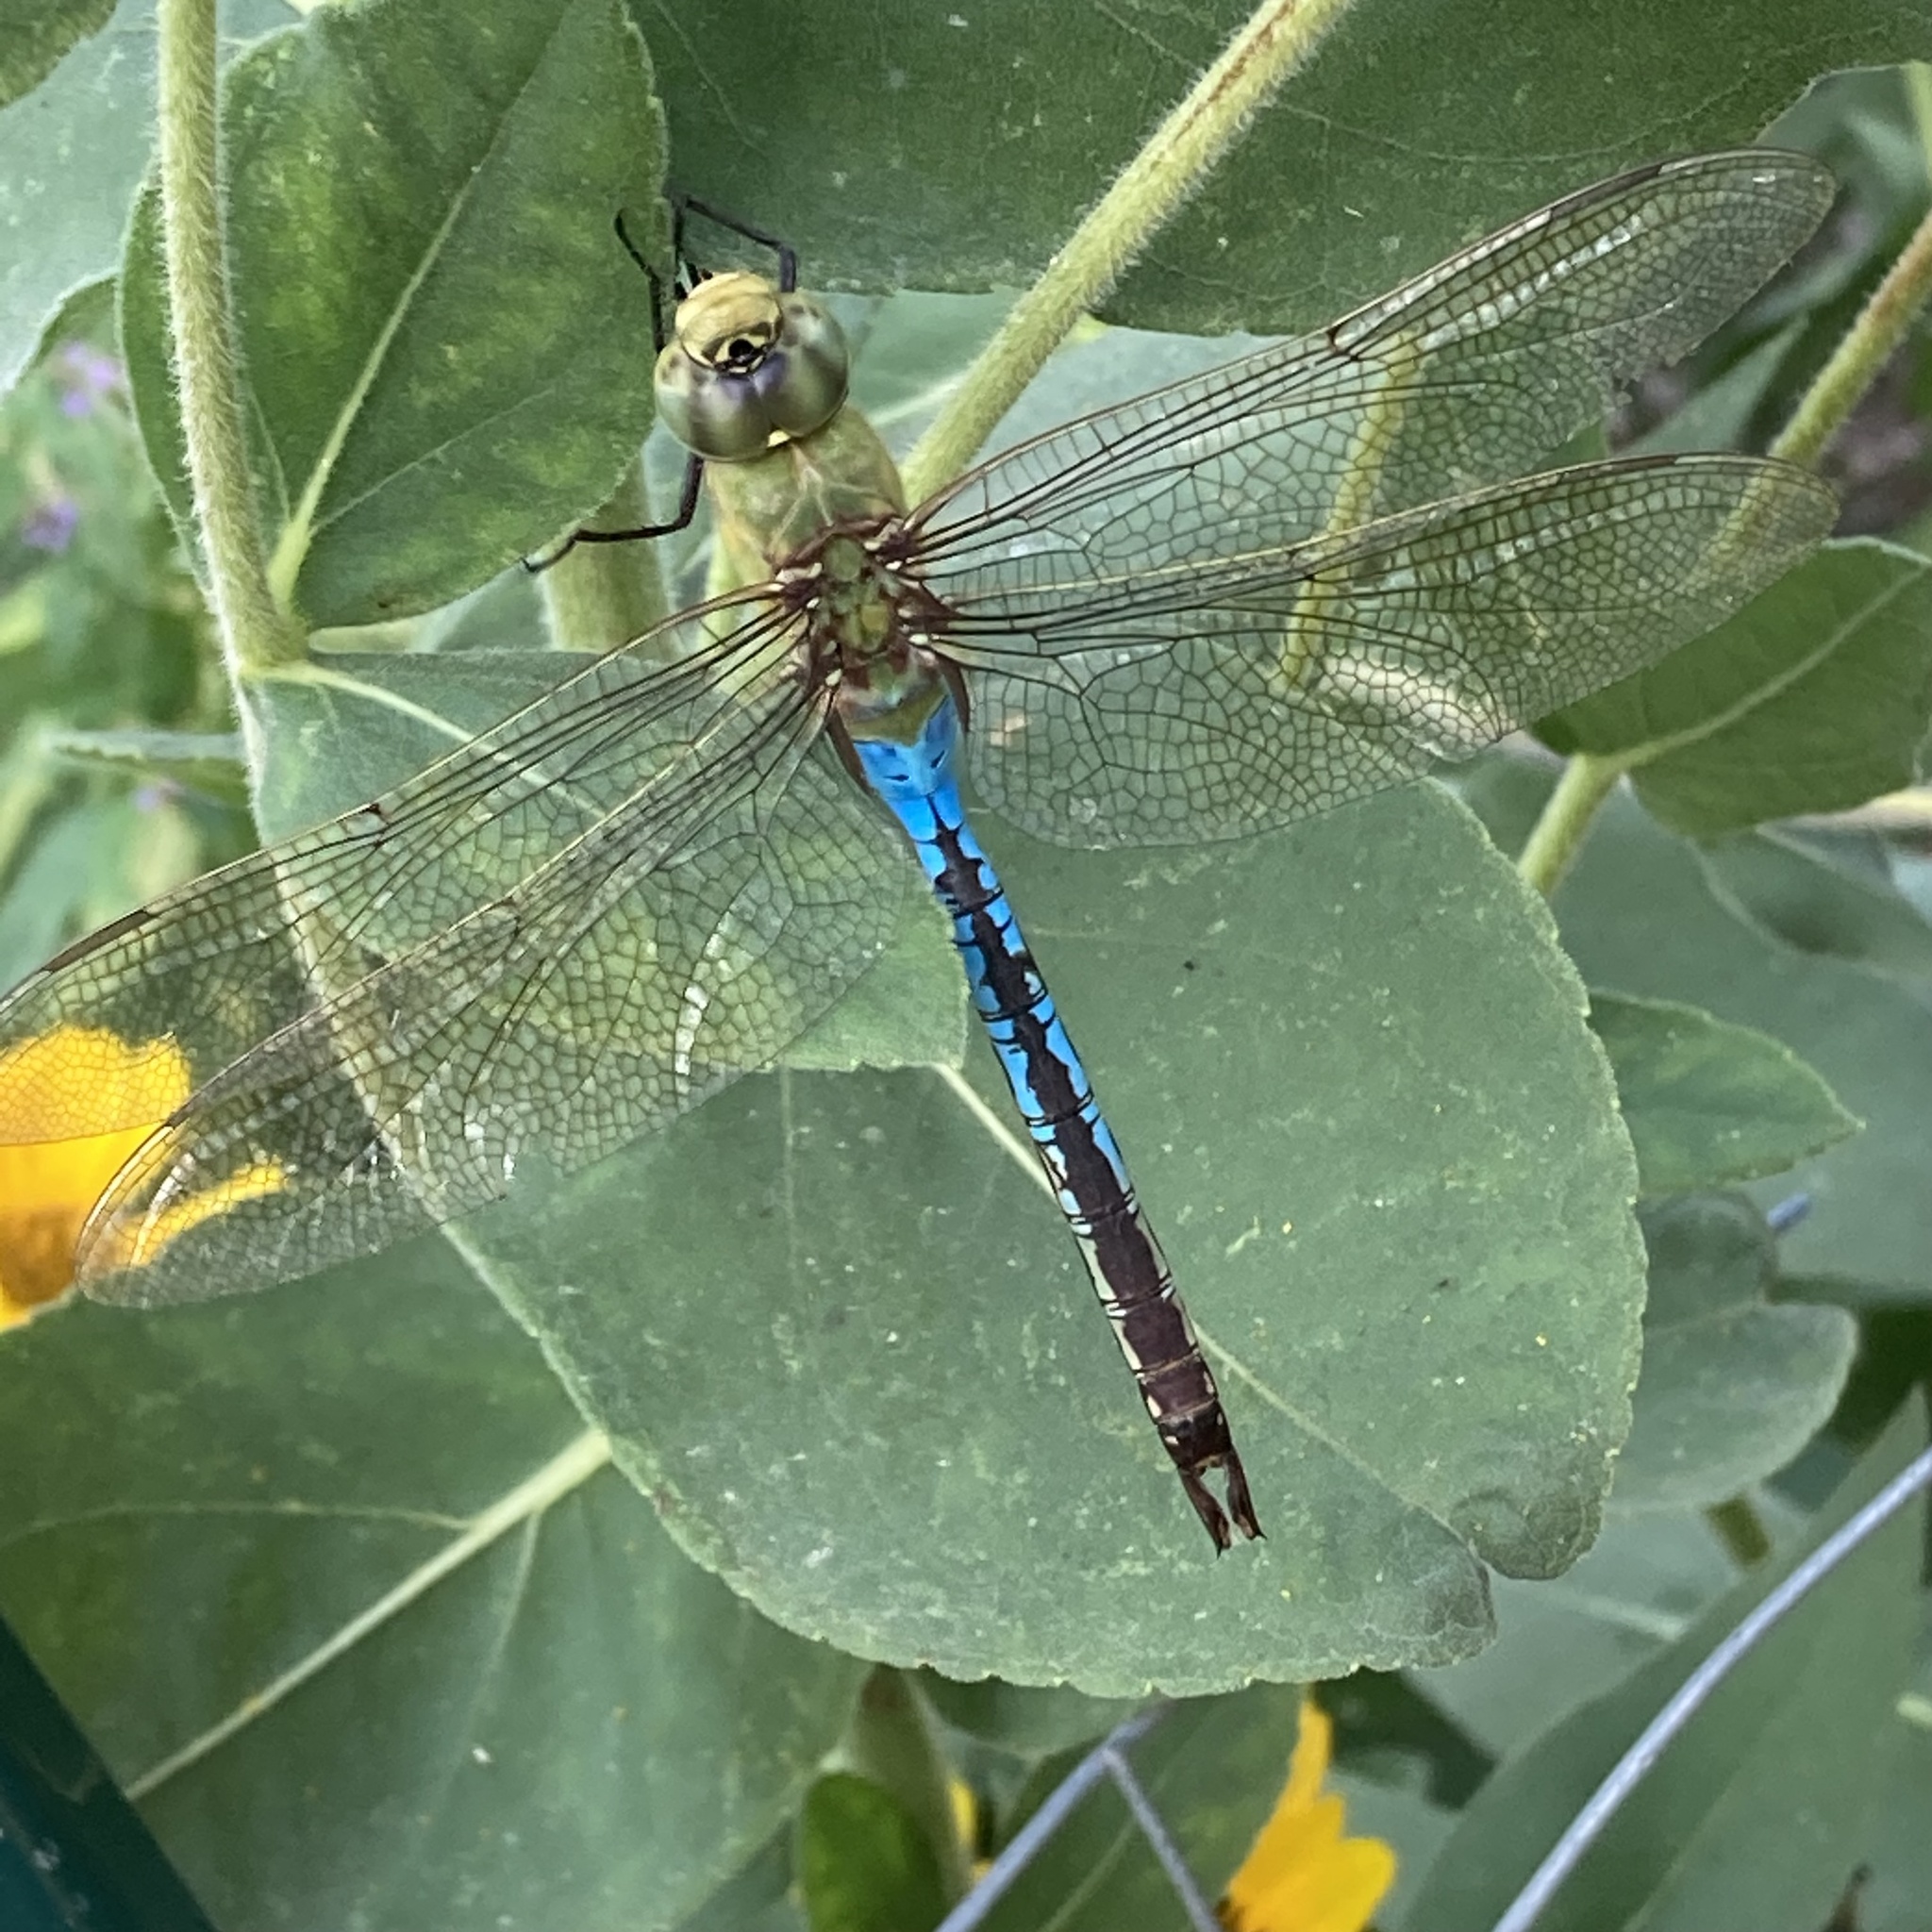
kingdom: Animalia
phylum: Arthropoda
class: Insecta
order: Odonata
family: Aeshnidae
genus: Anax
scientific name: Anax junius
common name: Common green darner
